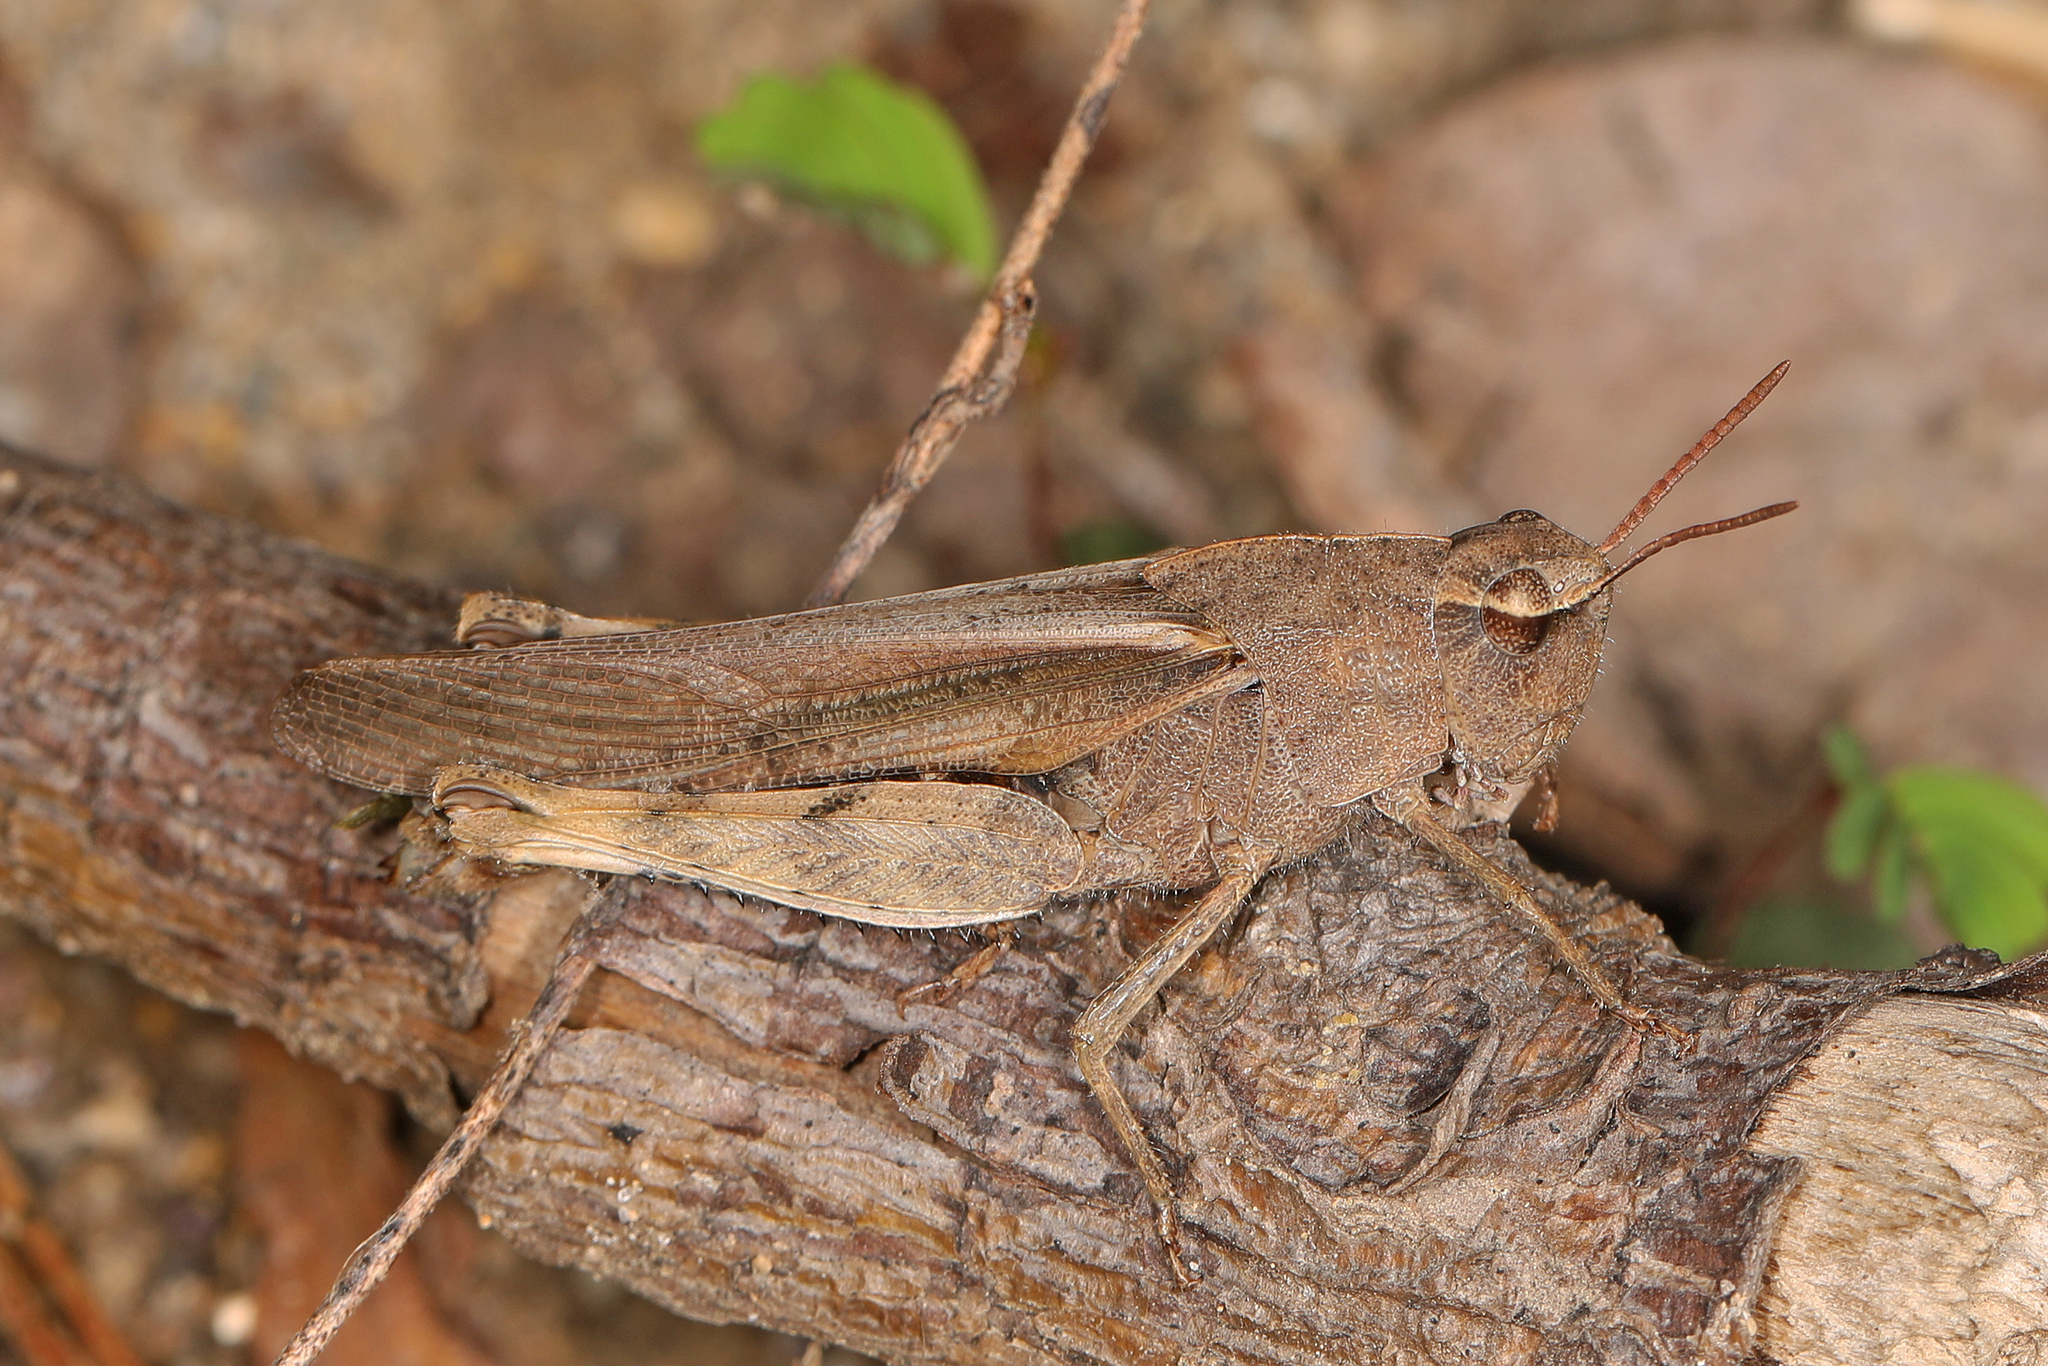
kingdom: Animalia
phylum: Arthropoda
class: Insecta
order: Orthoptera
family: Acrididae
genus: Chortophaga
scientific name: Chortophaga viridifasciata
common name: Green-striped grasshopper
